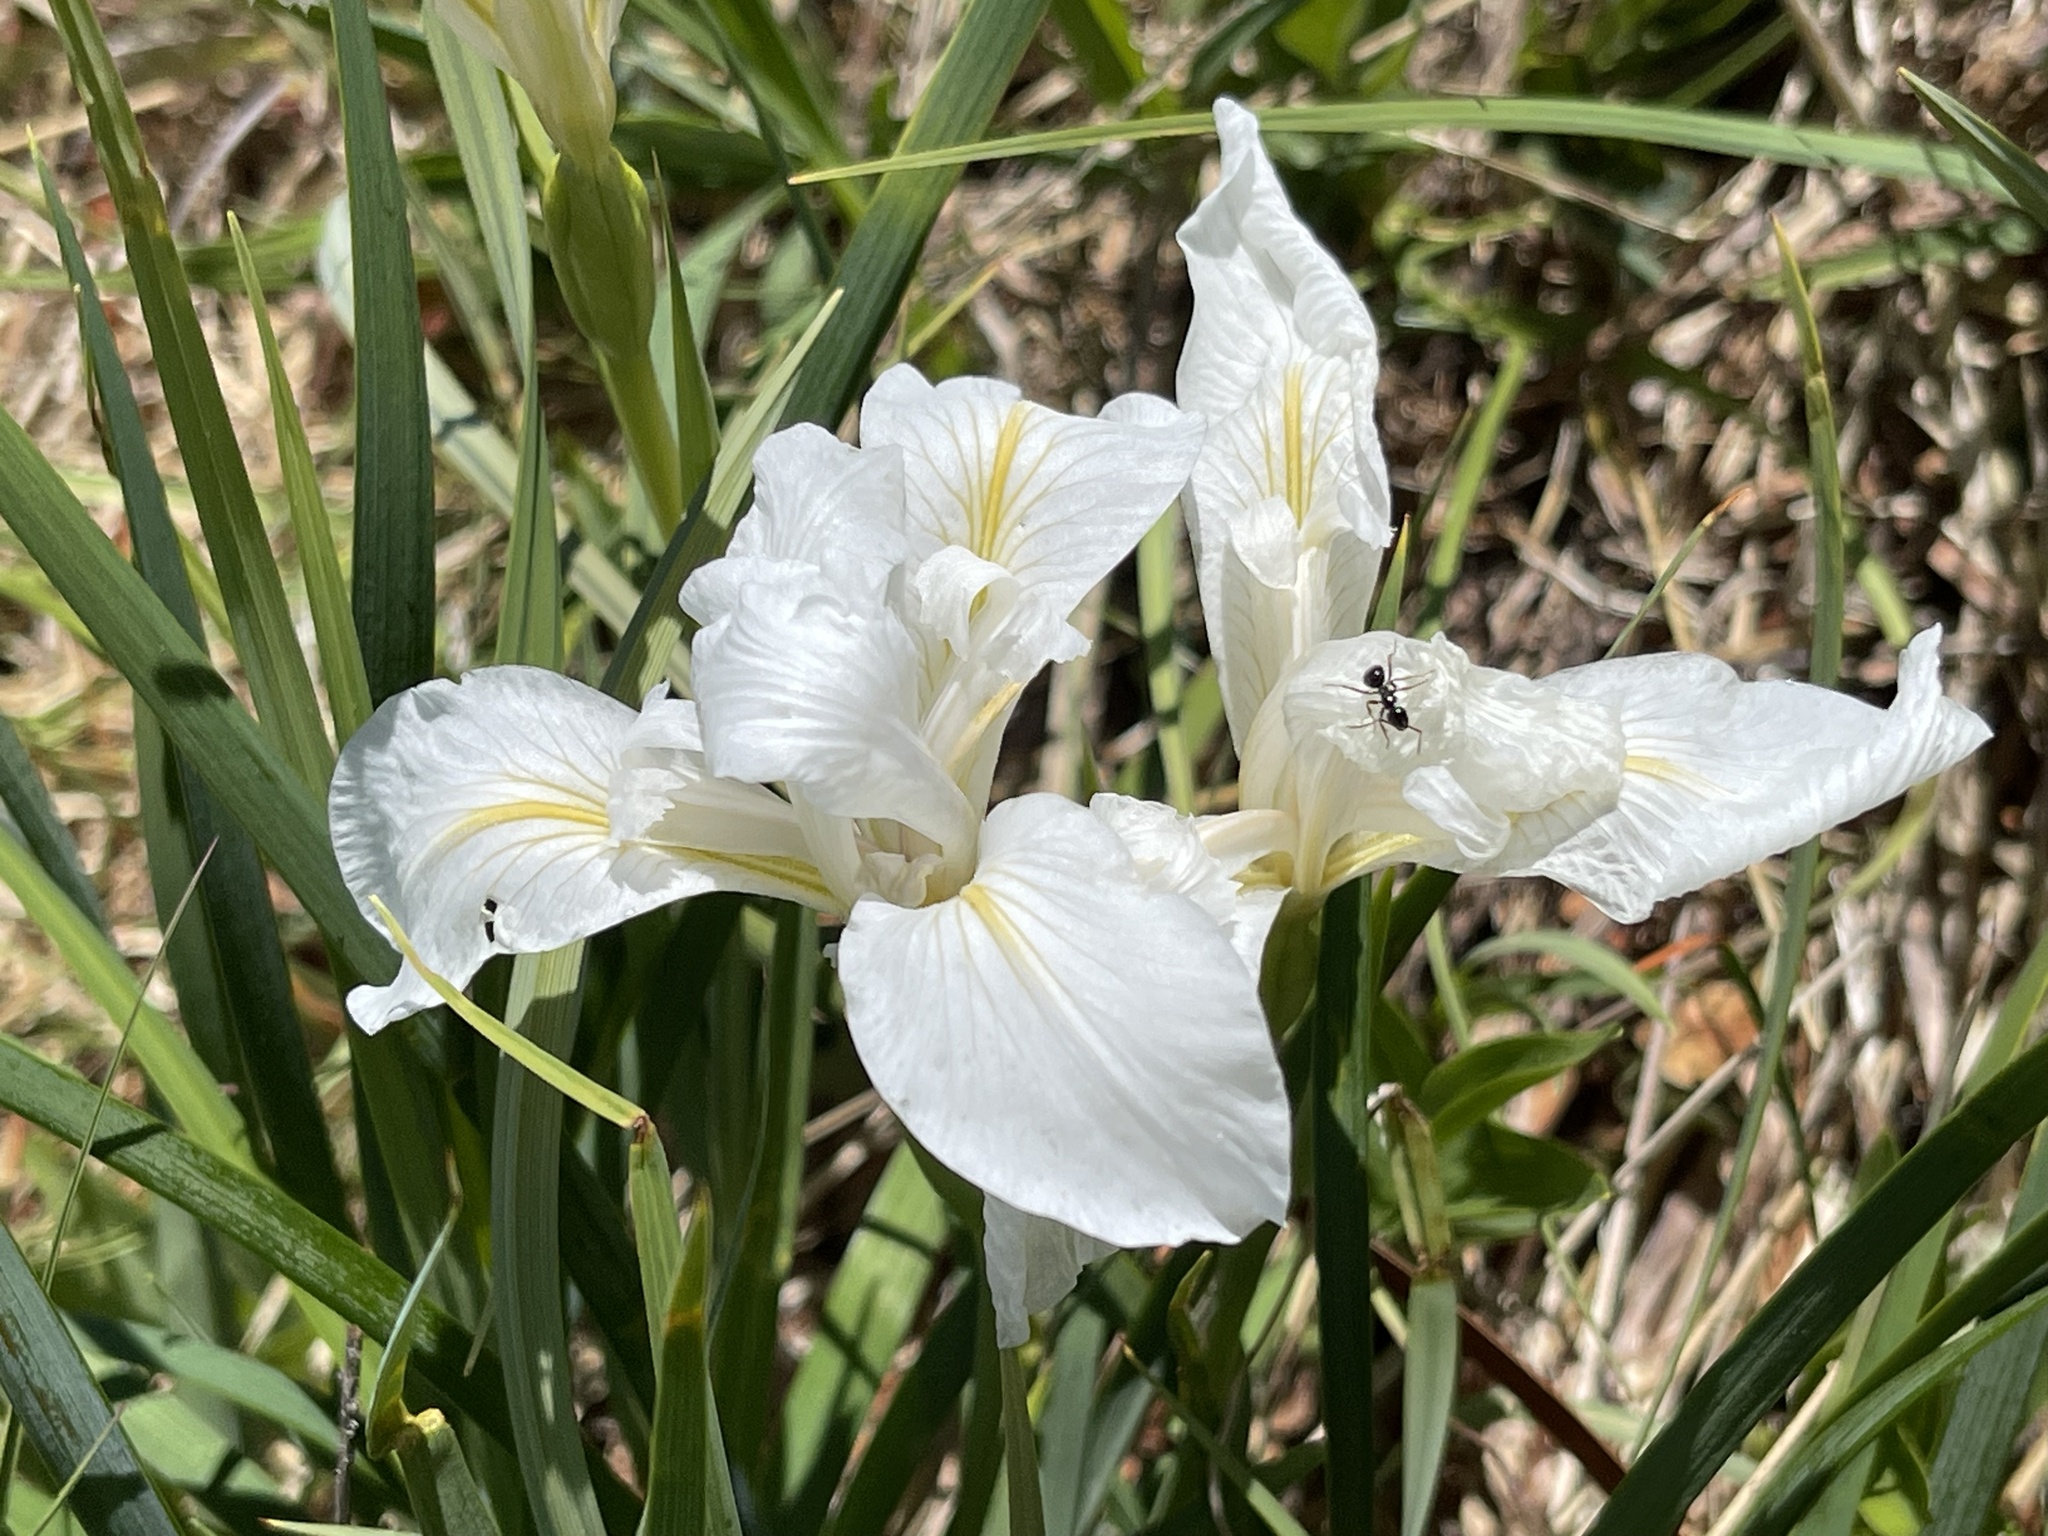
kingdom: Plantae
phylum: Tracheophyta
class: Liliopsida
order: Asparagales
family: Iridaceae
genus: Iris
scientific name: Iris tenax
